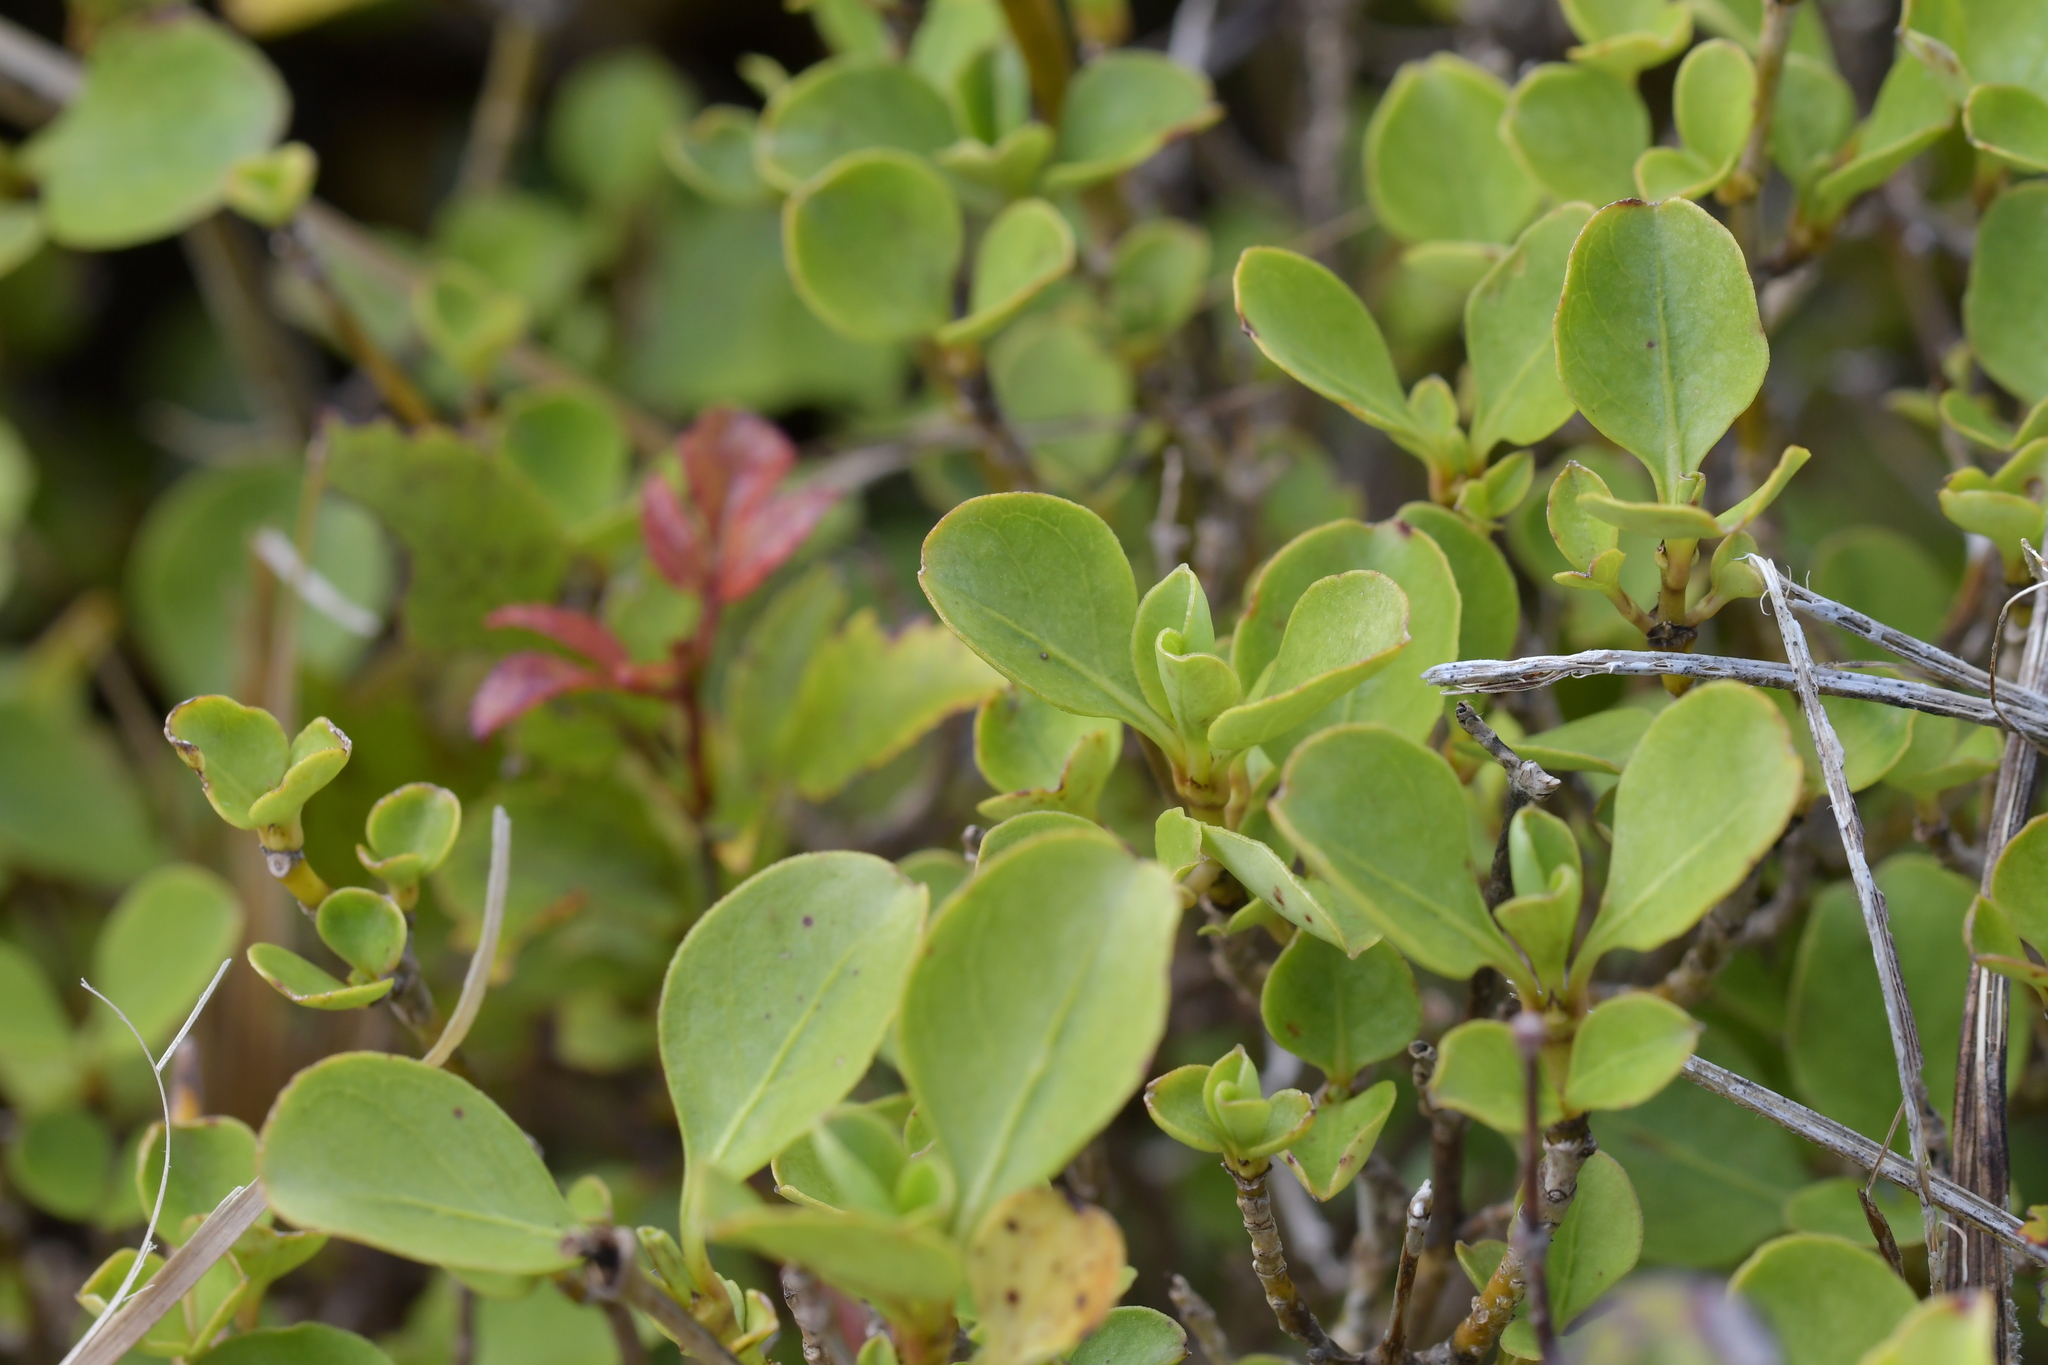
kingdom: Plantae
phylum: Tracheophyta
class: Magnoliopsida
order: Gentianales
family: Rubiaceae
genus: Coprosma
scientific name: Coprosma foetidissima
